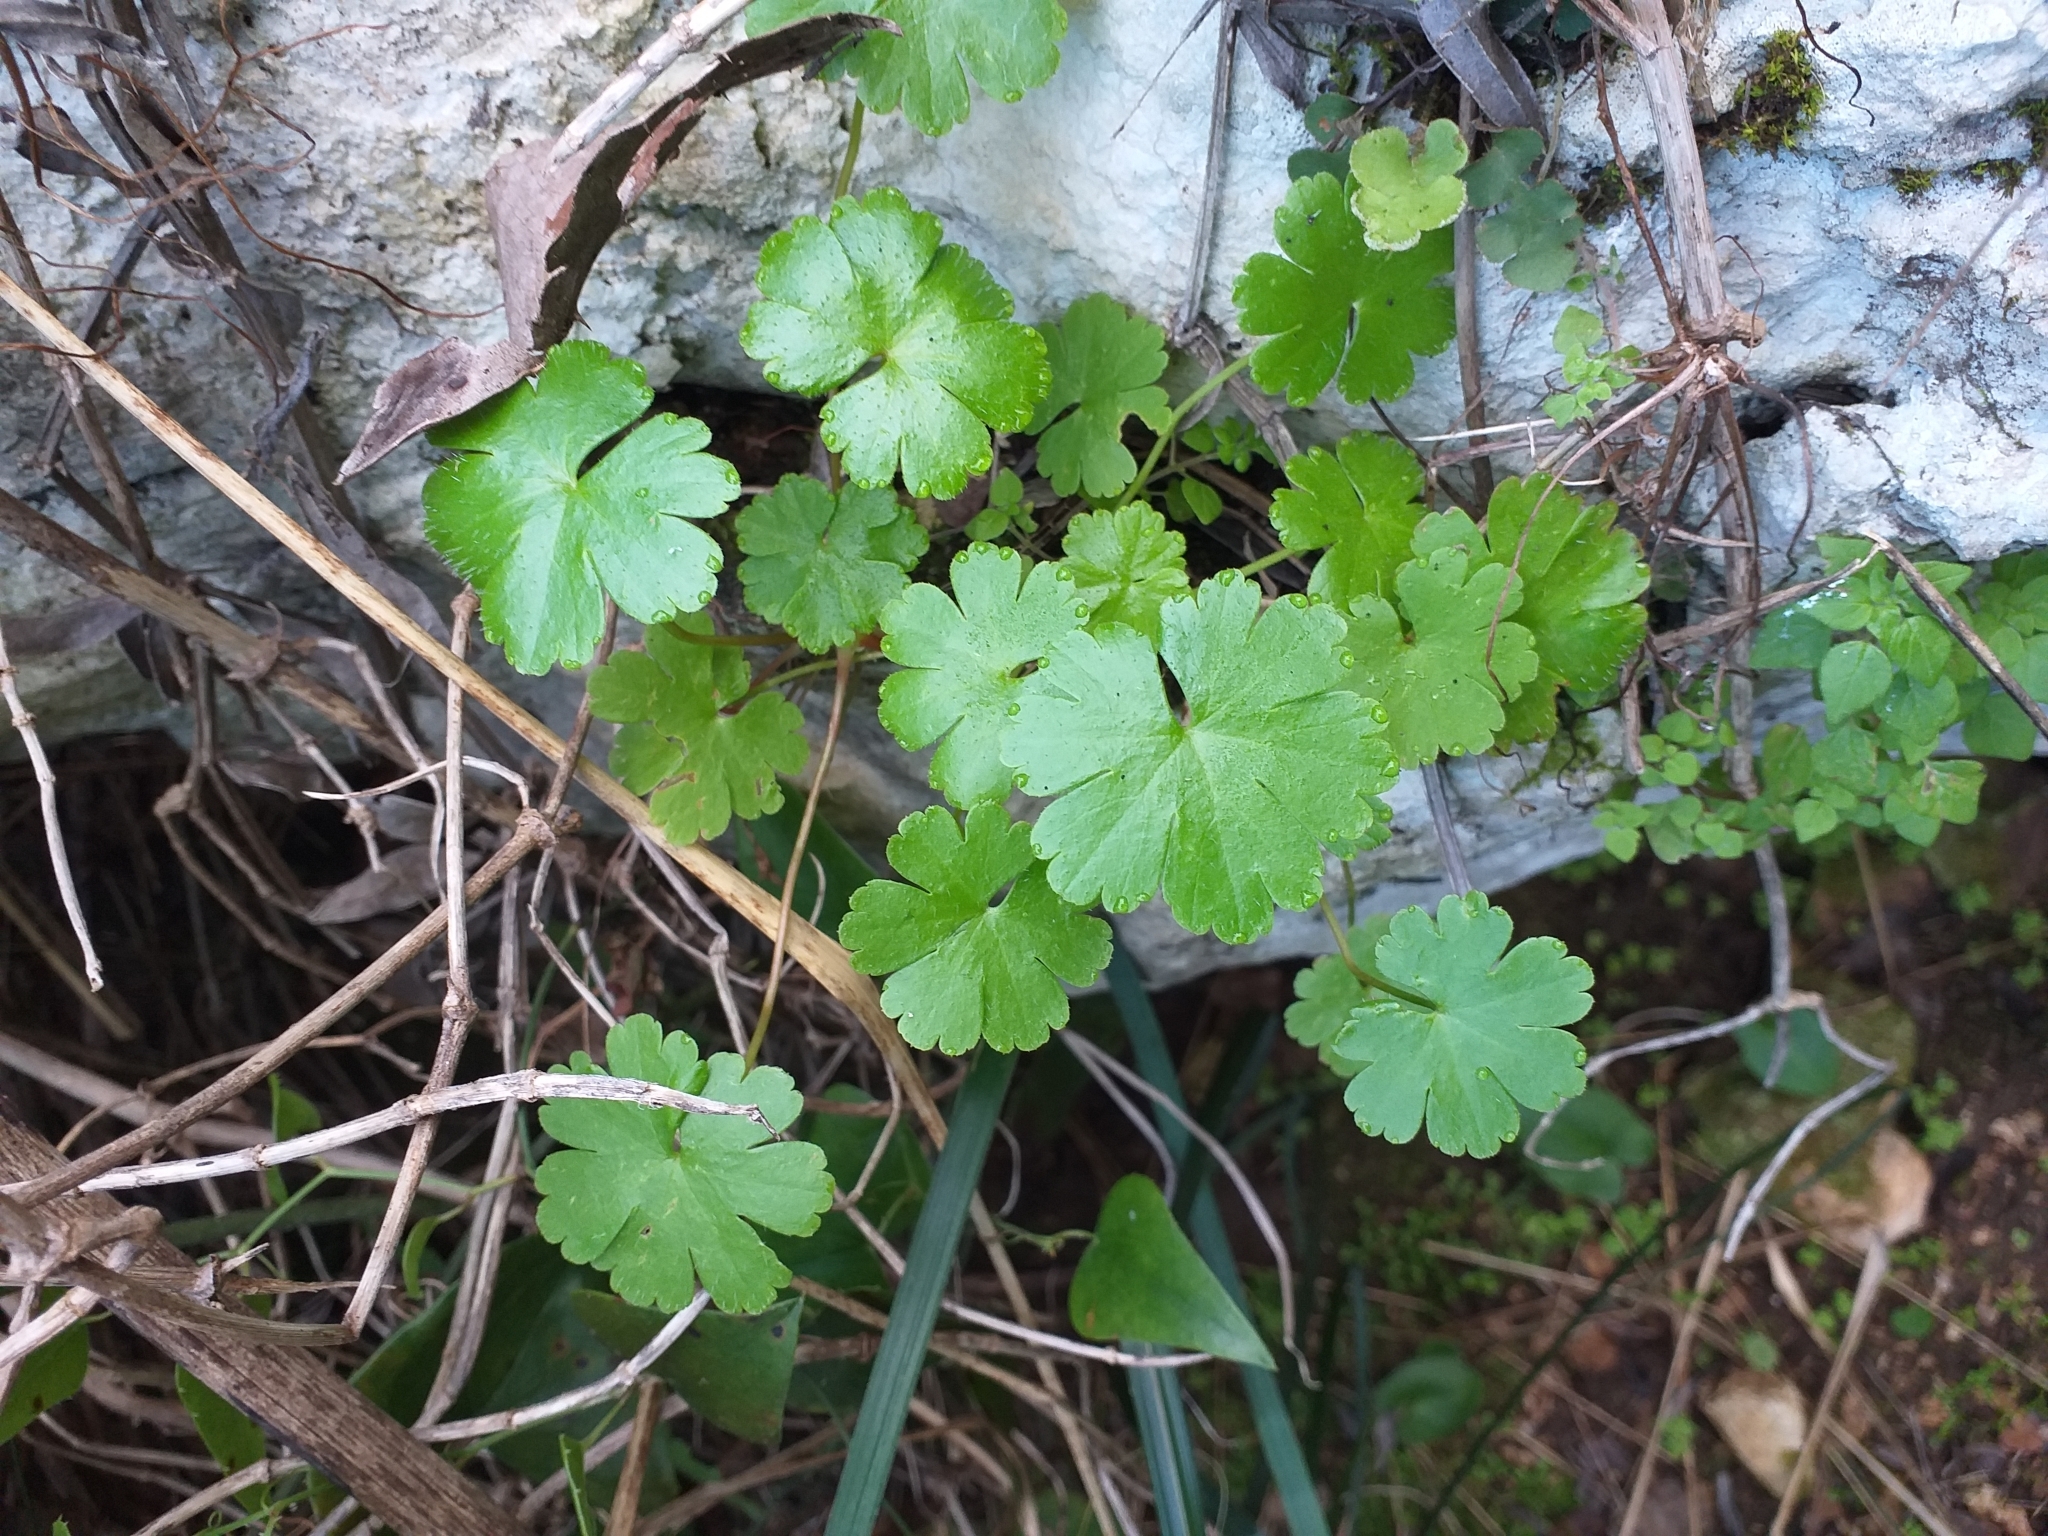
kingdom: Plantae
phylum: Tracheophyta
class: Magnoliopsida
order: Geraniales
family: Geraniaceae
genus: Geranium
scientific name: Geranium lucidum
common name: Shining crane's-bill
